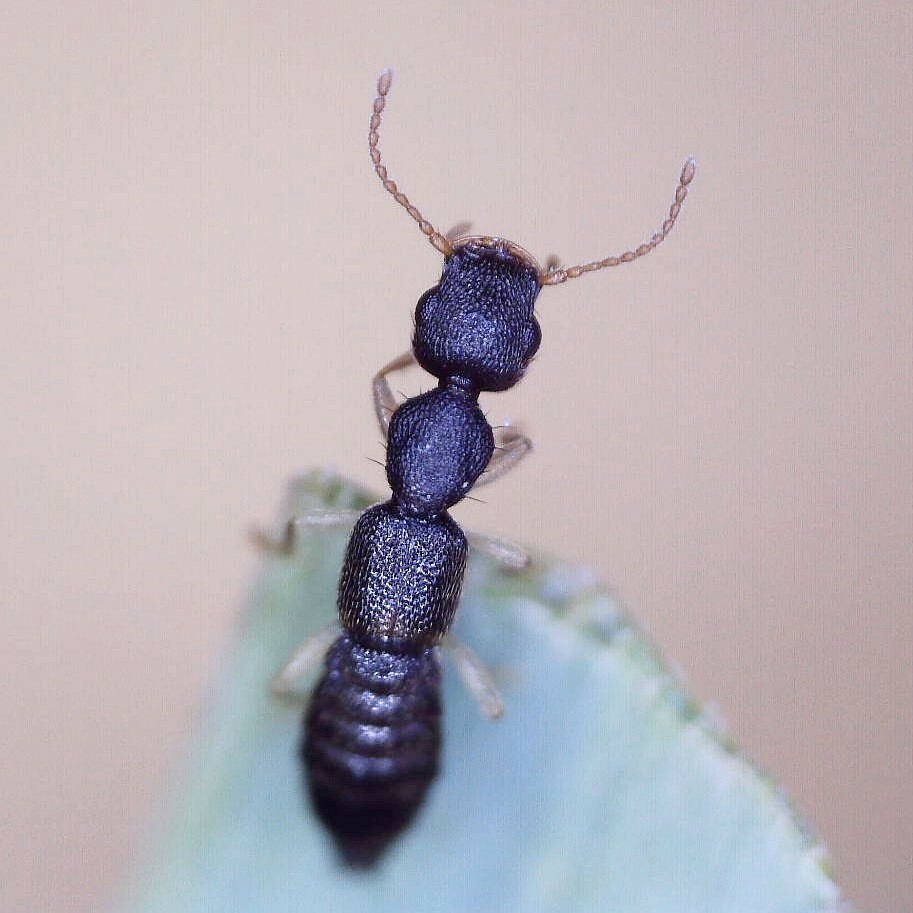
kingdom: Animalia
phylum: Arthropoda
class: Insecta
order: Coleoptera
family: Staphylinidae
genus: Astenus
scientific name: Astenus immaculatus
